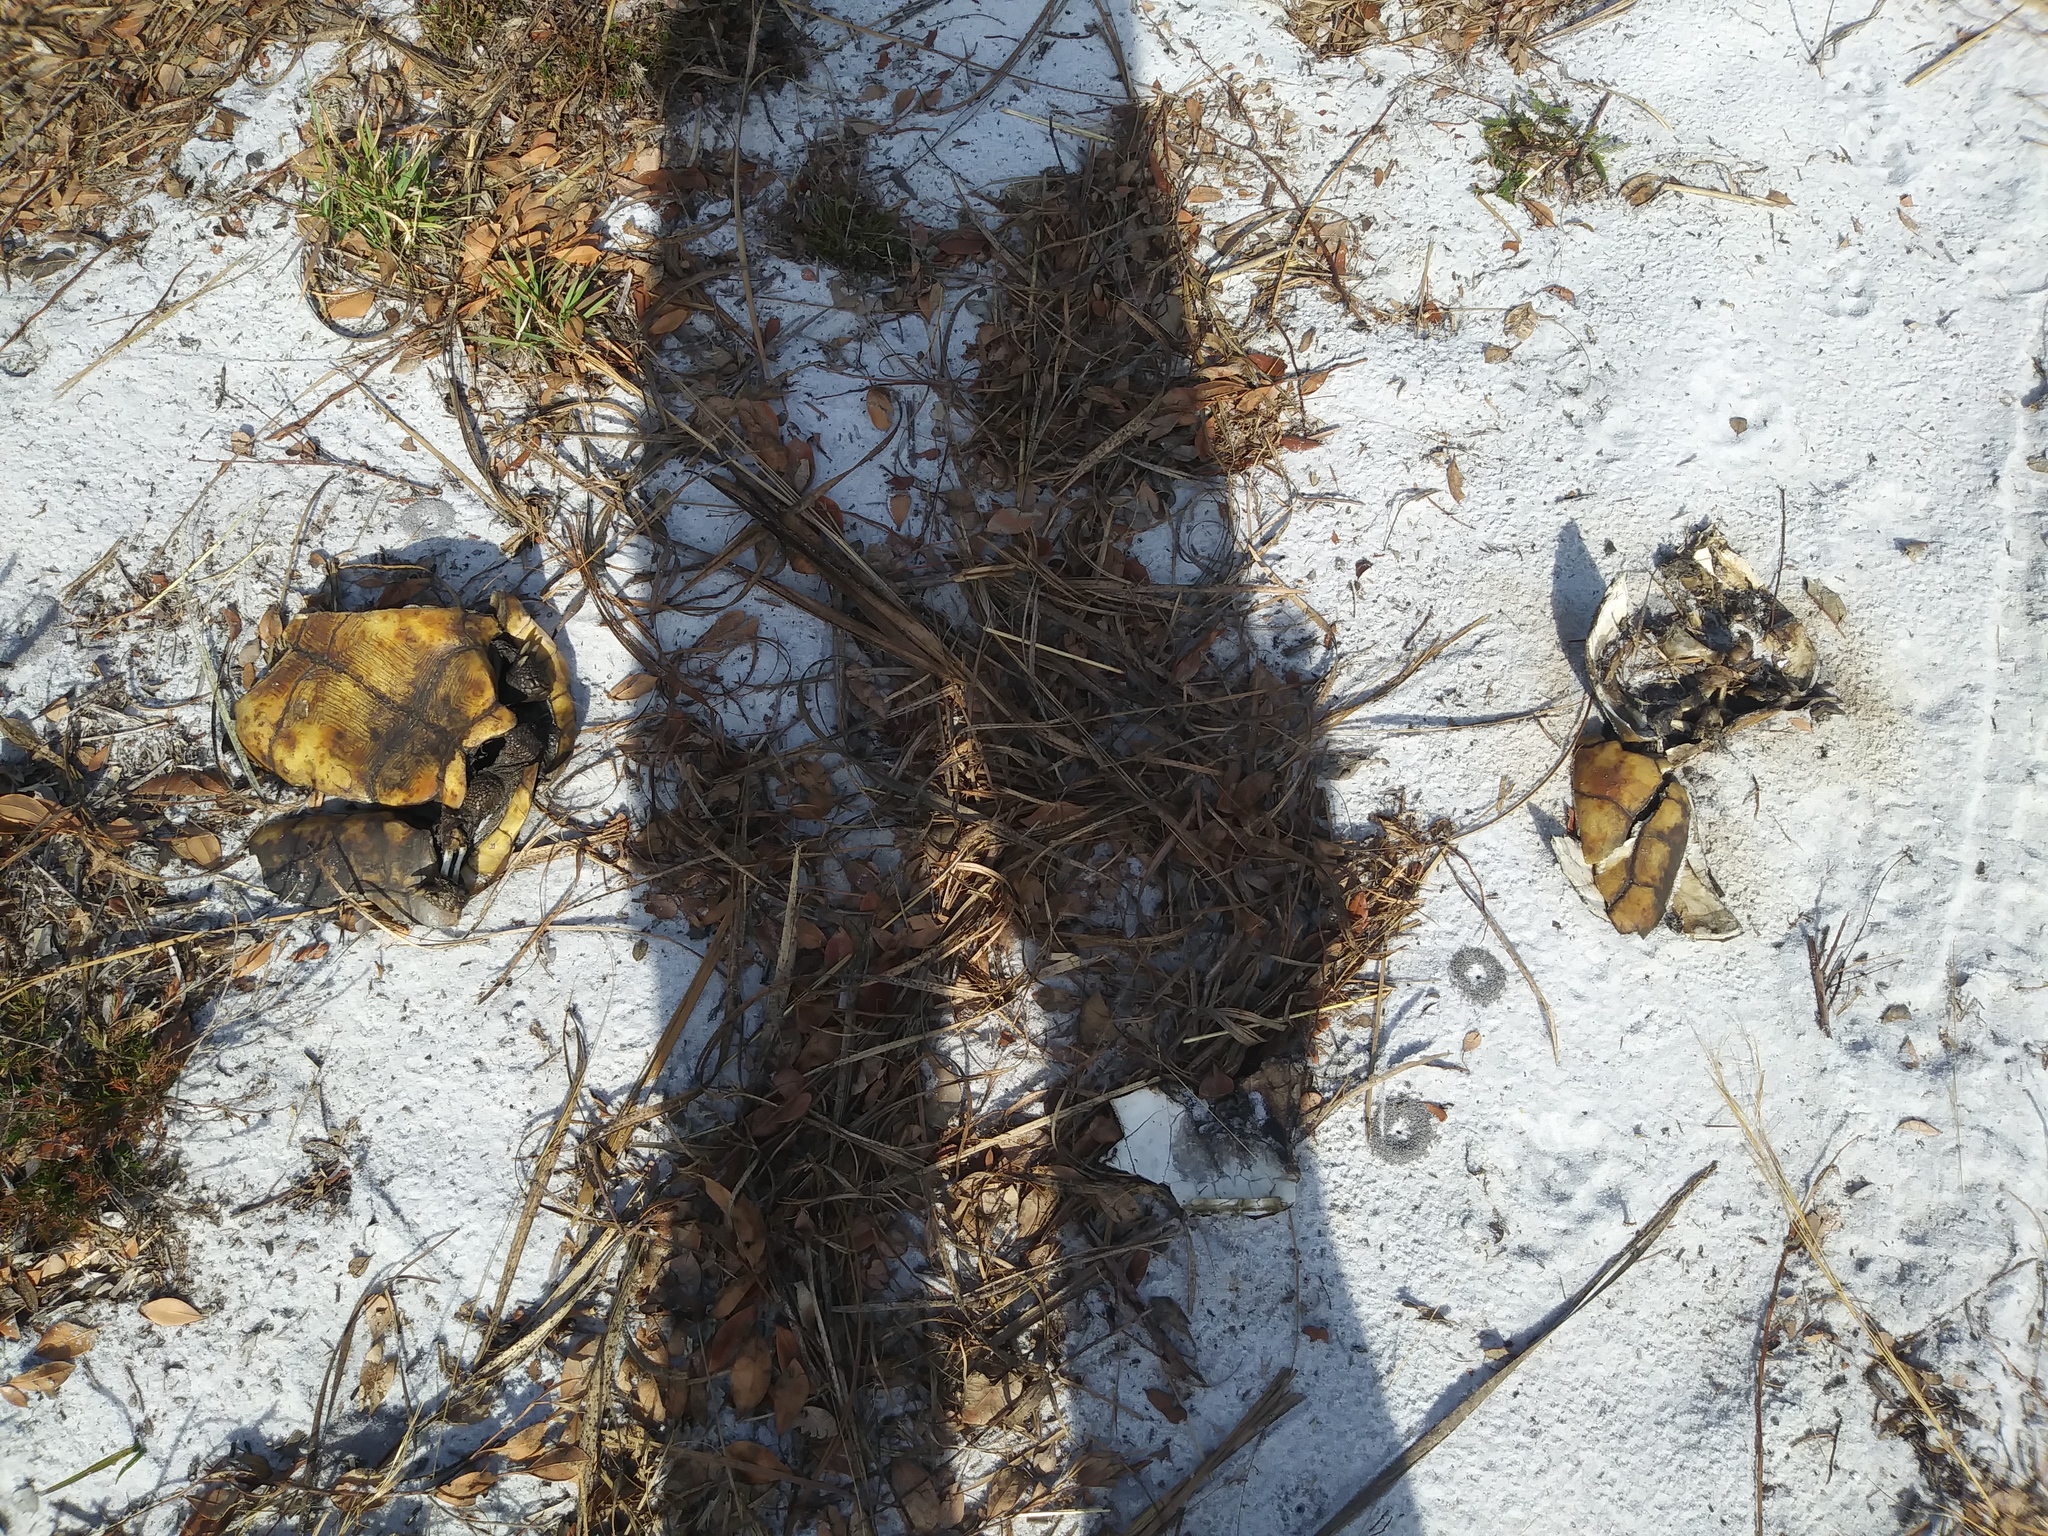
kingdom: Animalia
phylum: Chordata
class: Testudines
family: Testudinidae
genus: Gopherus
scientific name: Gopherus polyphemus
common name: Florida gopher tortoise
